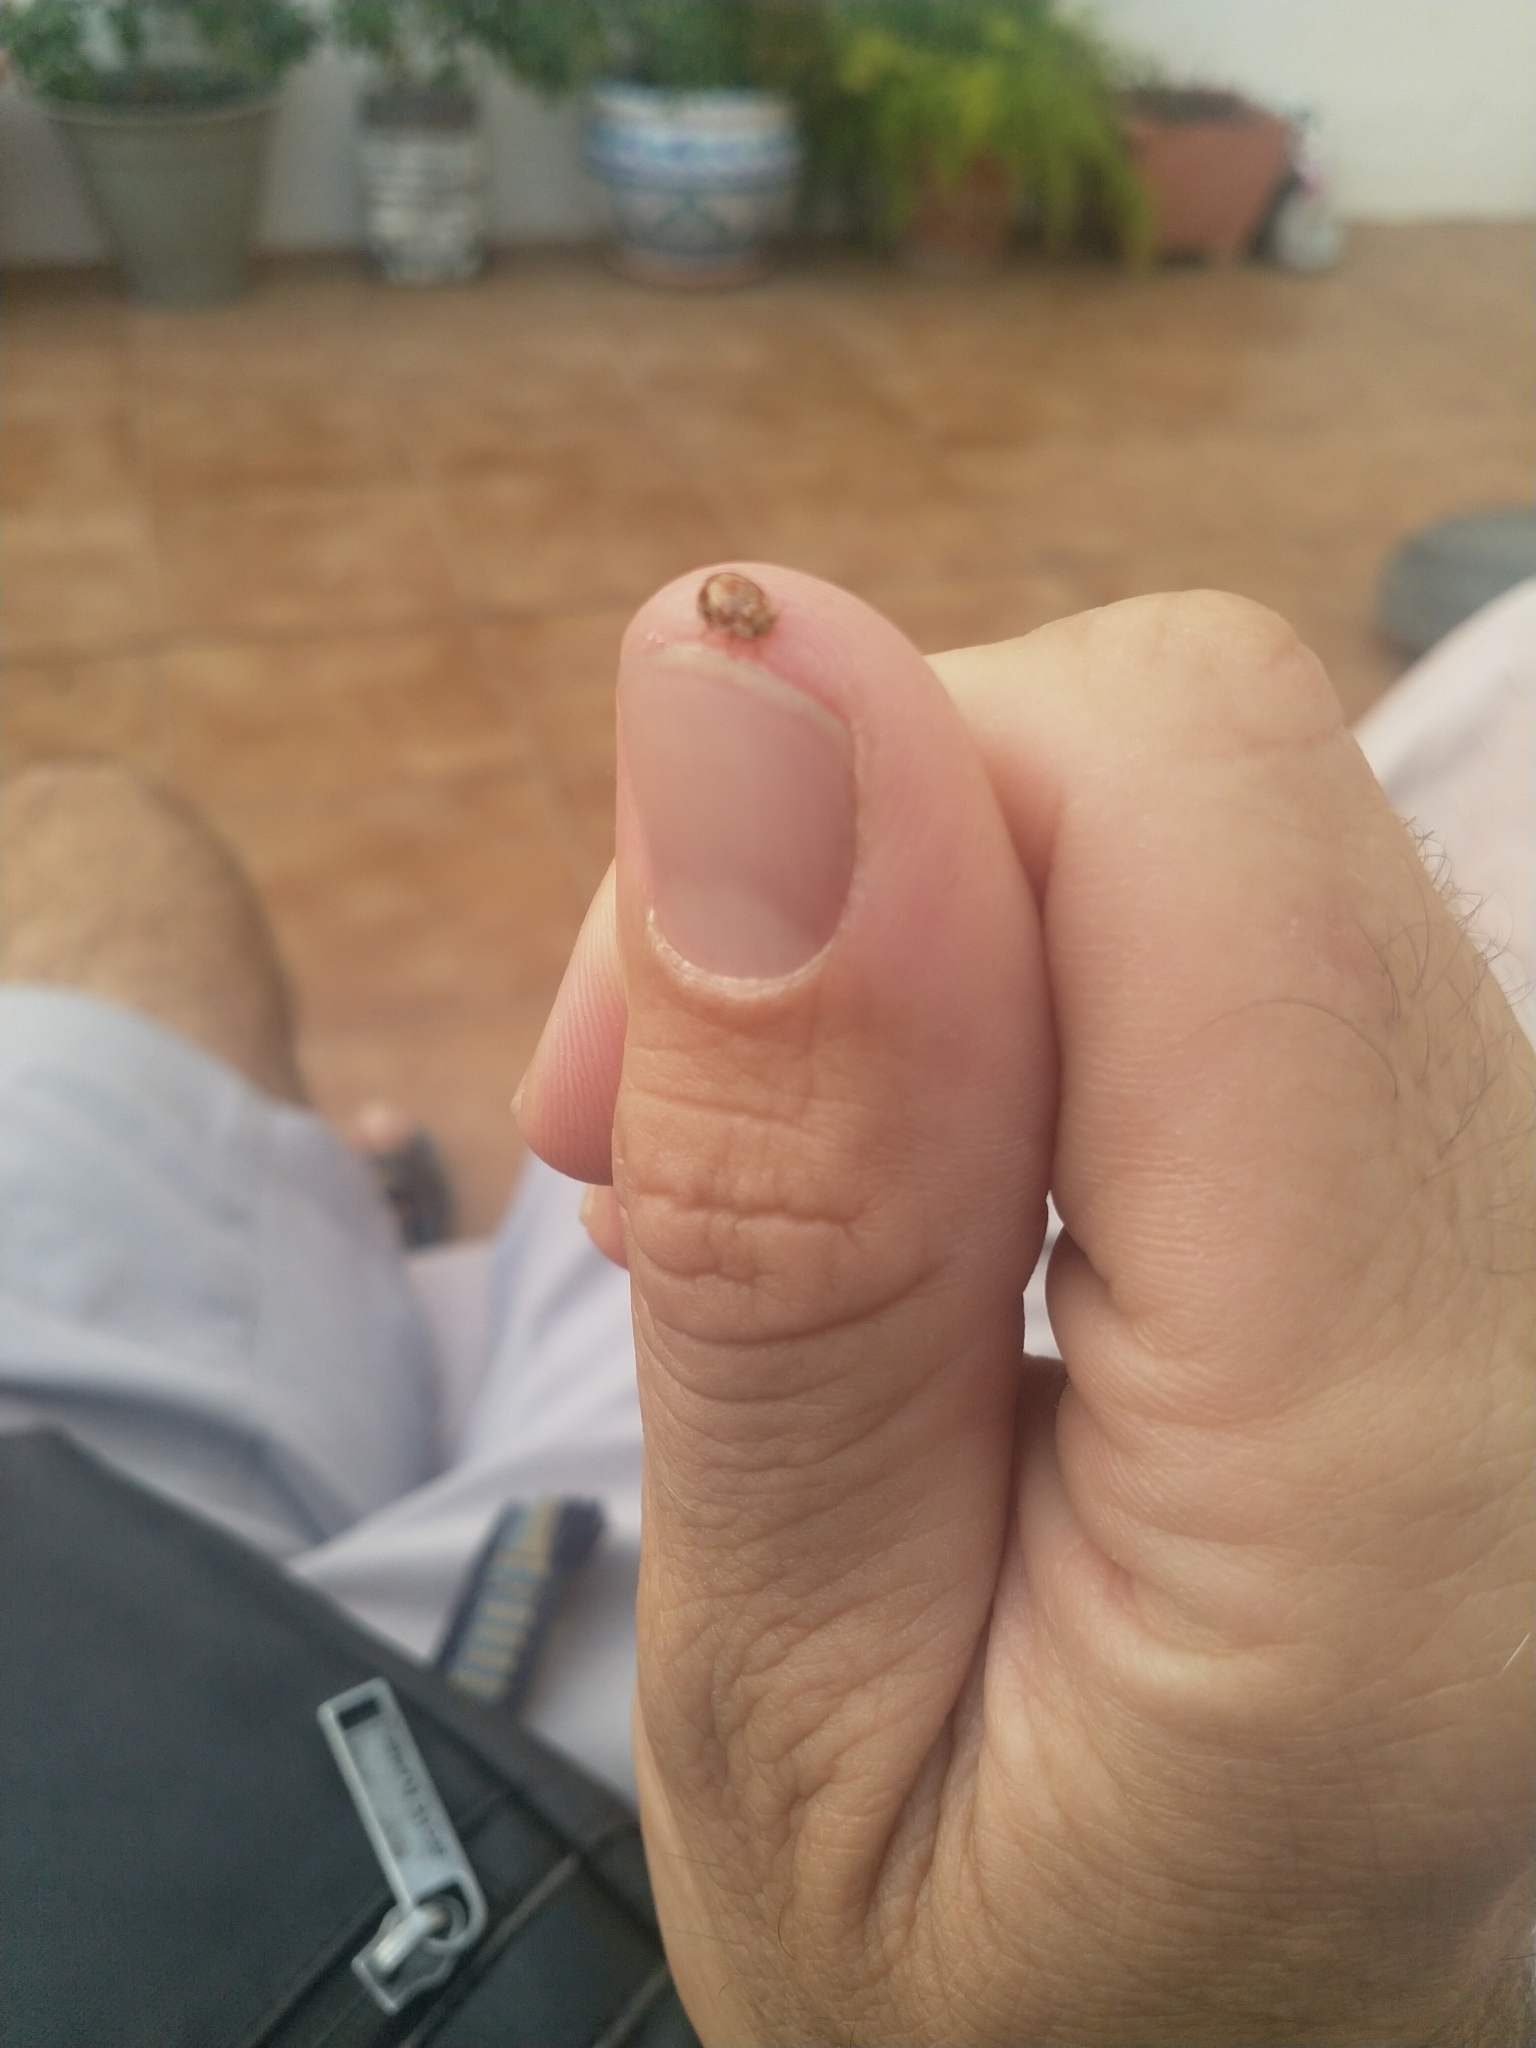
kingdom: Animalia
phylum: Arthropoda
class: Insecta
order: Coleoptera
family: Coccinellidae
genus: Myrrha
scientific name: Myrrha octodecimguttata
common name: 18-spot ladybird
